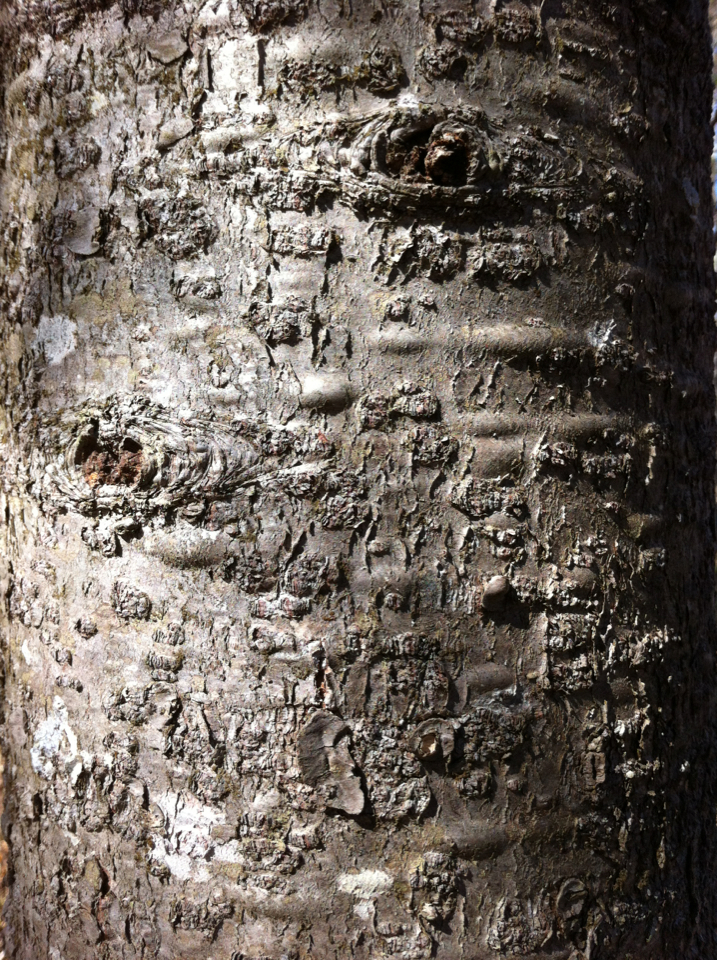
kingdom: Plantae
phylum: Tracheophyta
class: Pinopsida
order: Pinales
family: Pinaceae
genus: Abies
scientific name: Abies balsamea
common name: Balsam fir
